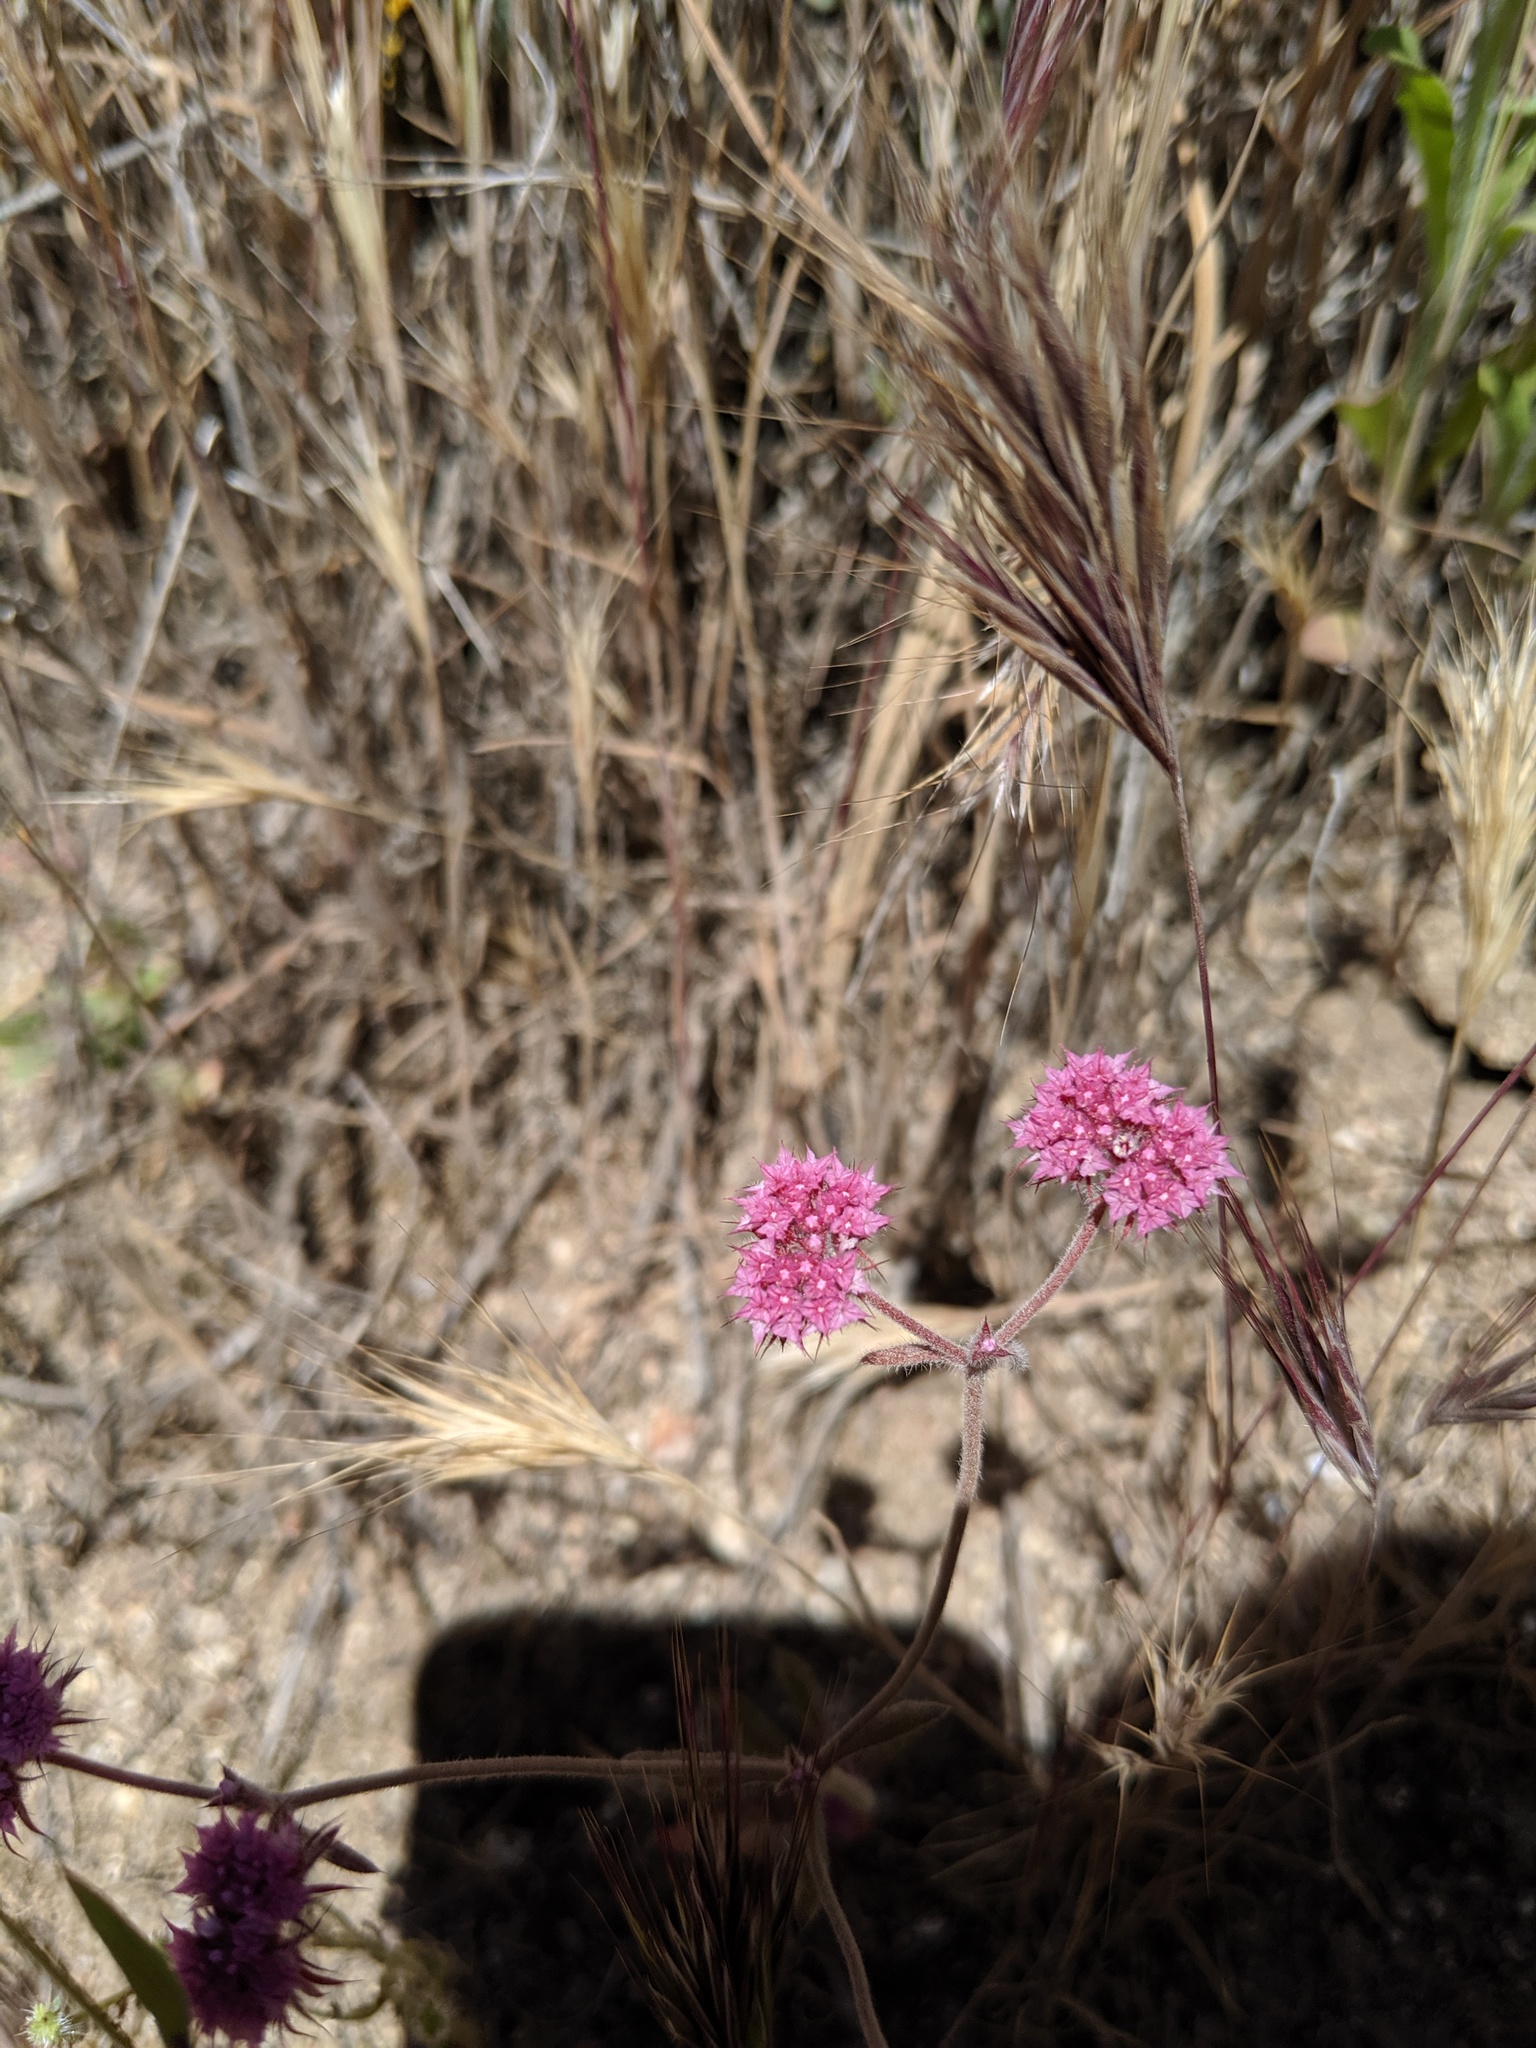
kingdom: Plantae
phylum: Tracheophyta
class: Magnoliopsida
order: Caryophyllales
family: Polygonaceae
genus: Chorizanthe
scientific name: Chorizanthe douglasii
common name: Douglas's spineflower
